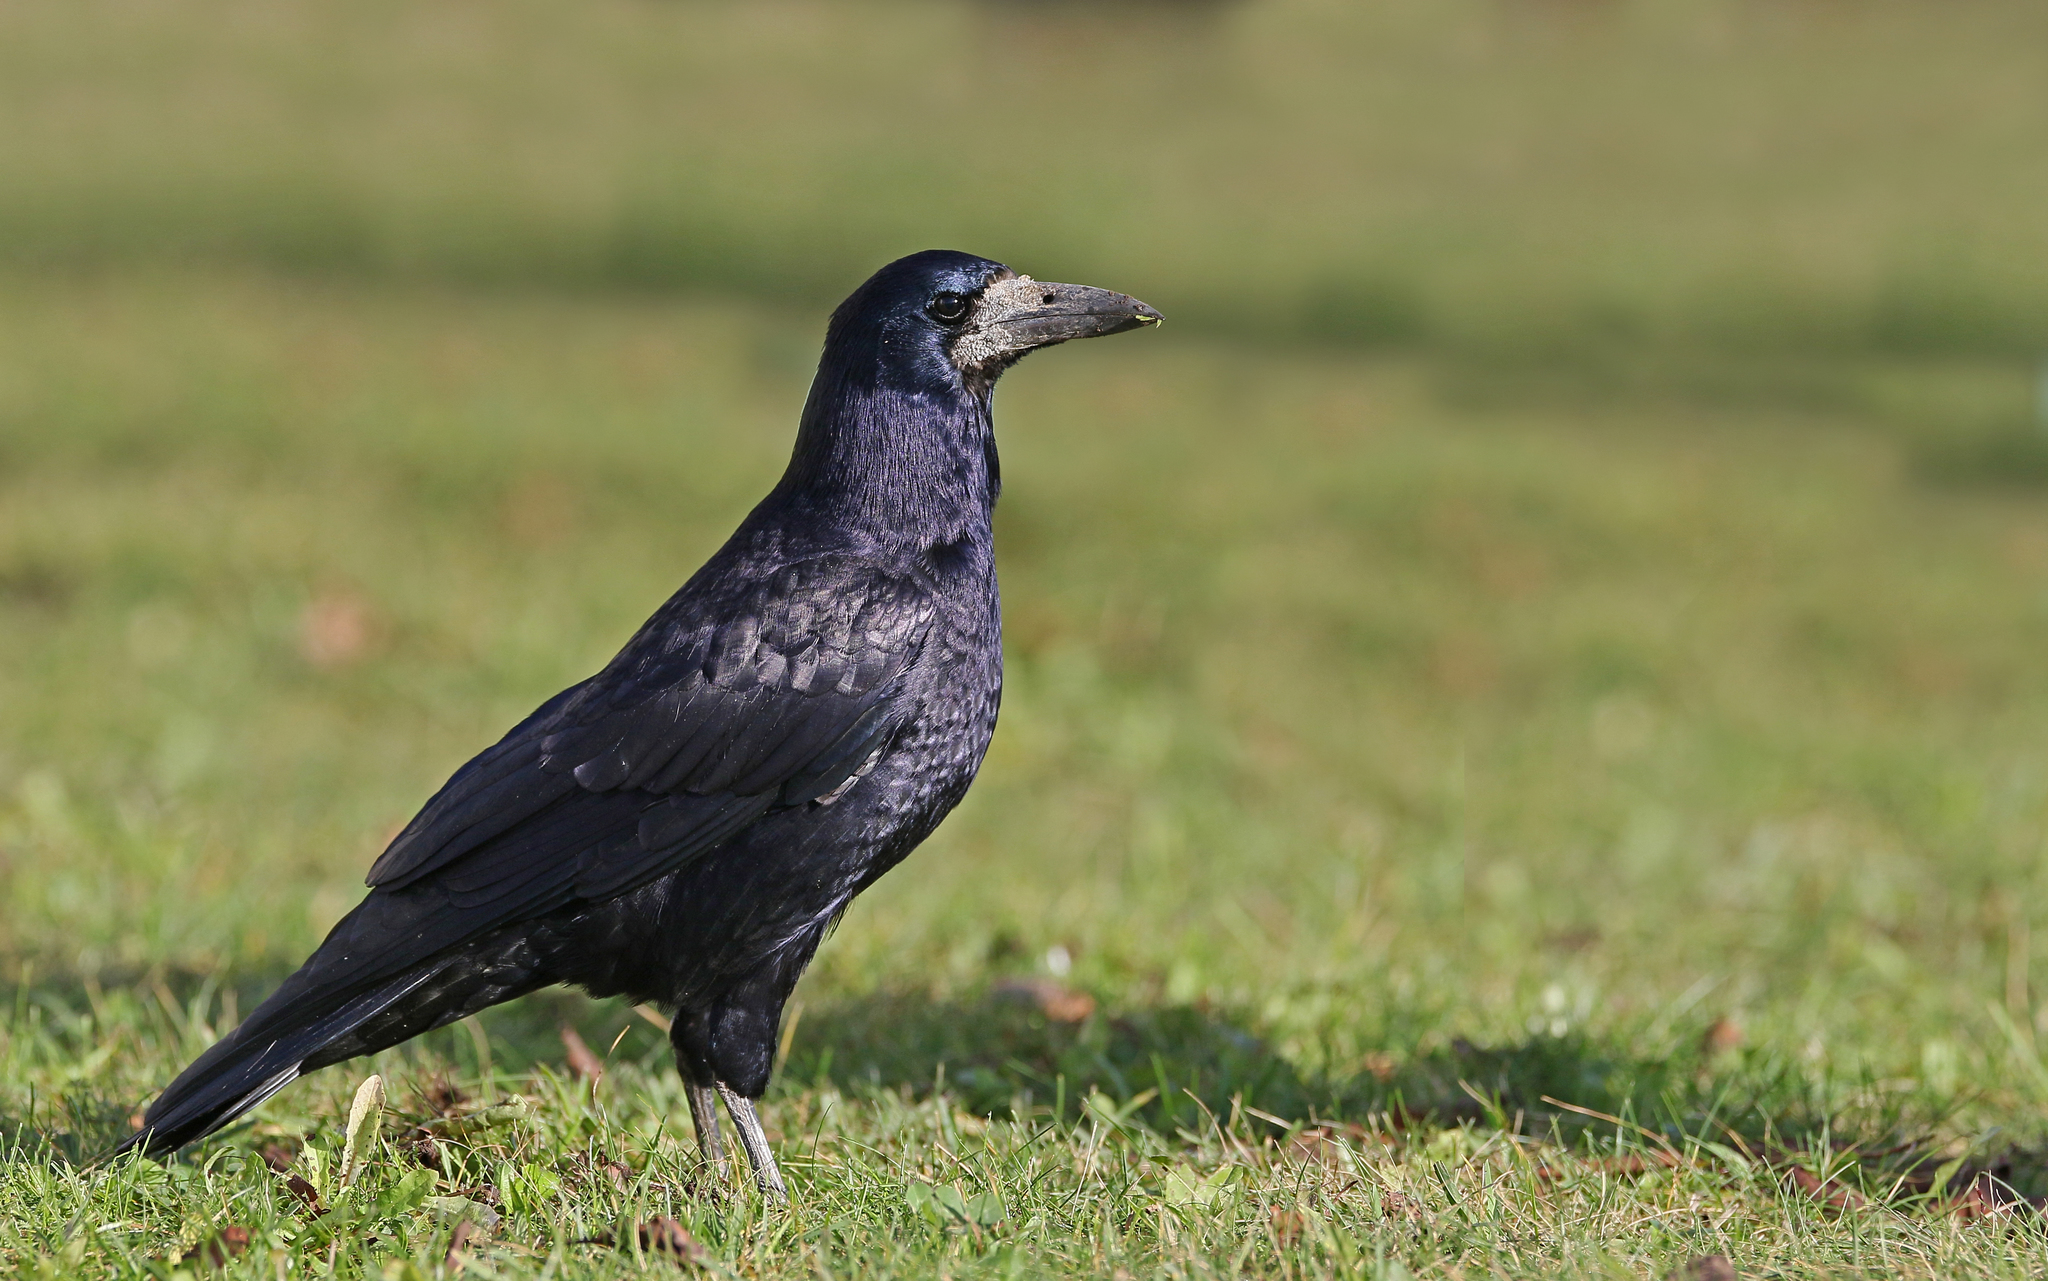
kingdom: Animalia
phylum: Chordata
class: Aves
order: Passeriformes
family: Corvidae
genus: Corvus
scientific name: Corvus frugilegus
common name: Rook
